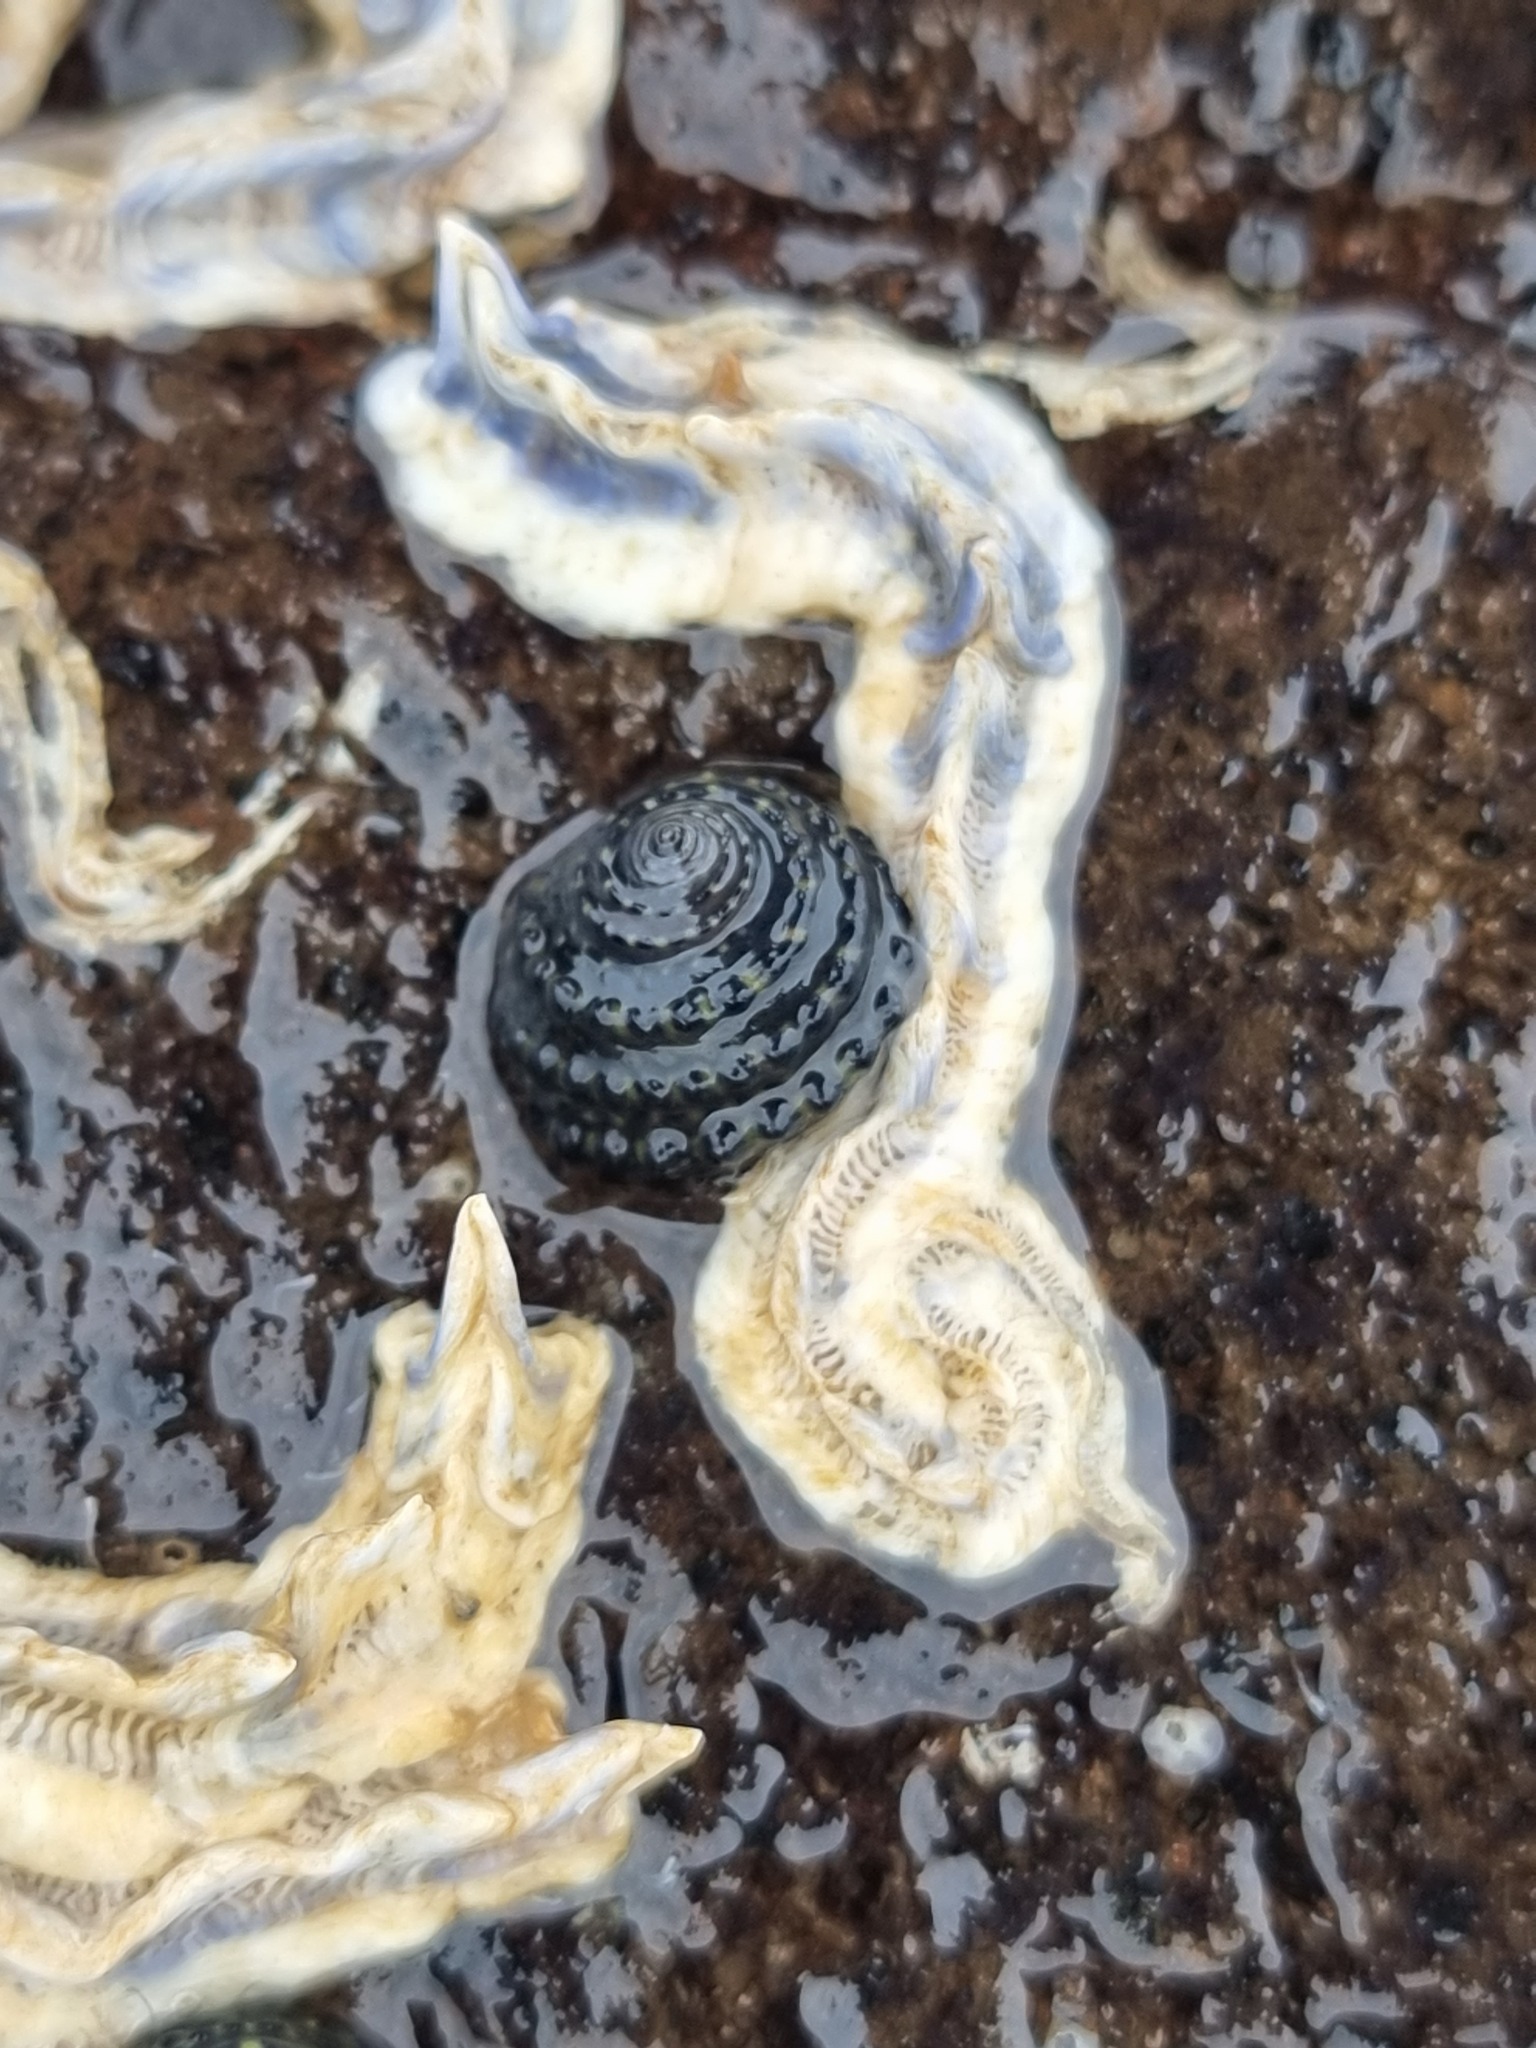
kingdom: Animalia
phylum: Mollusca
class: Gastropoda
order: Trochida
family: Trochidae
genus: Diloma
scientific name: Diloma bicanaliculatum
